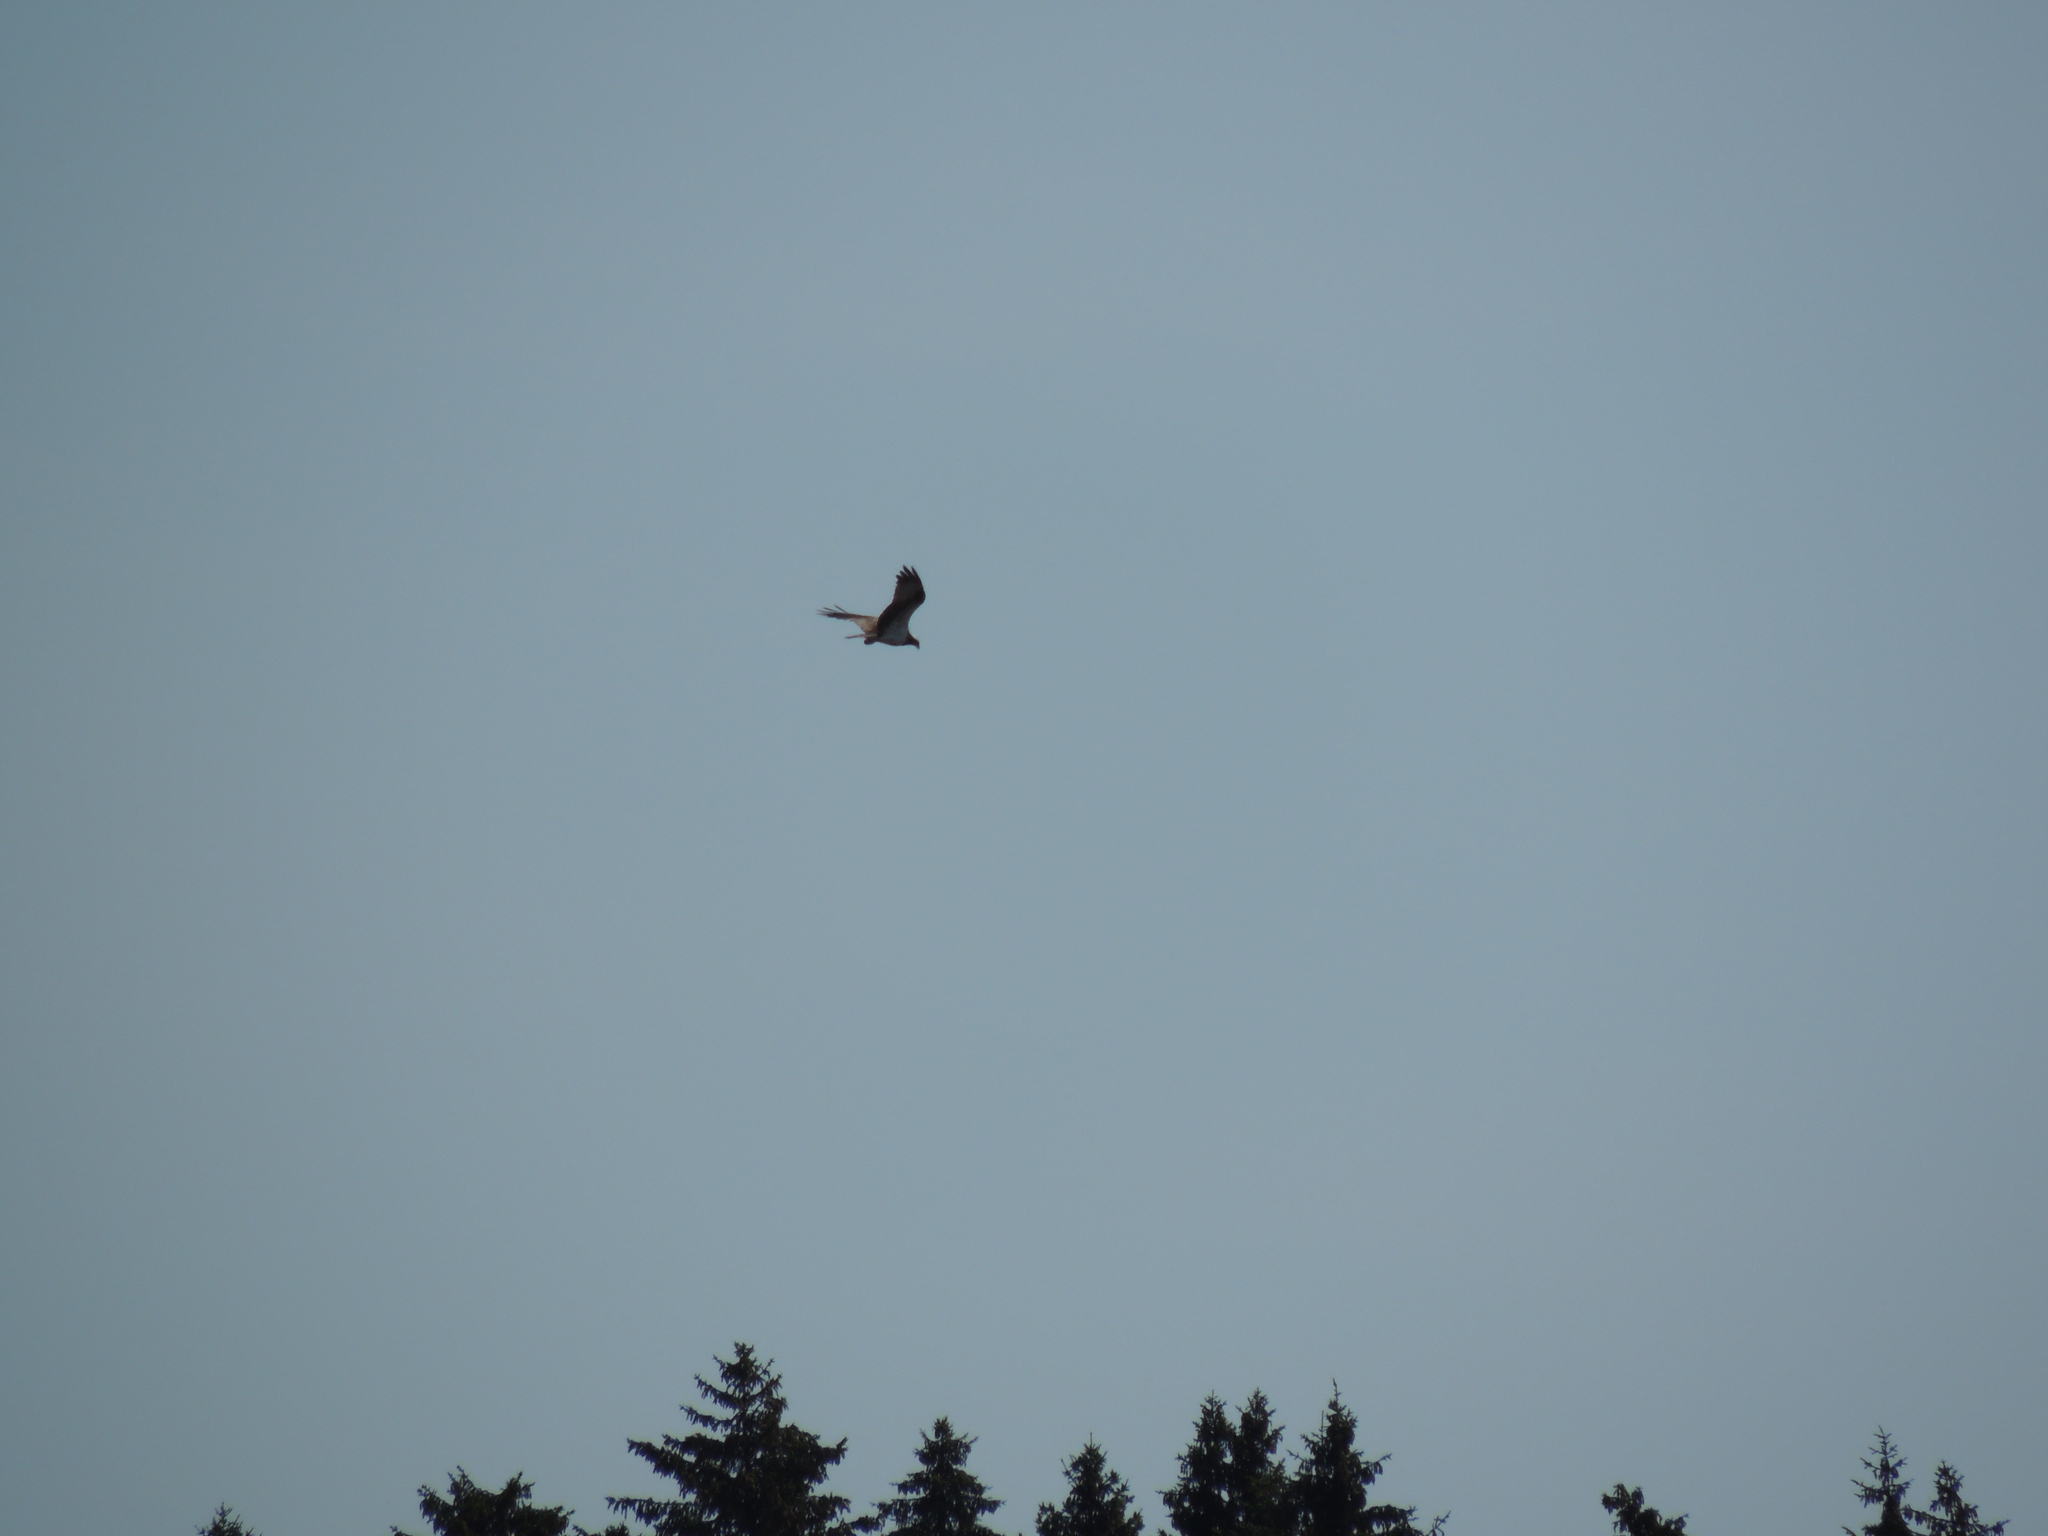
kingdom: Animalia
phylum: Chordata
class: Aves
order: Accipitriformes
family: Pandionidae
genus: Pandion
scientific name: Pandion haliaetus
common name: Osprey
